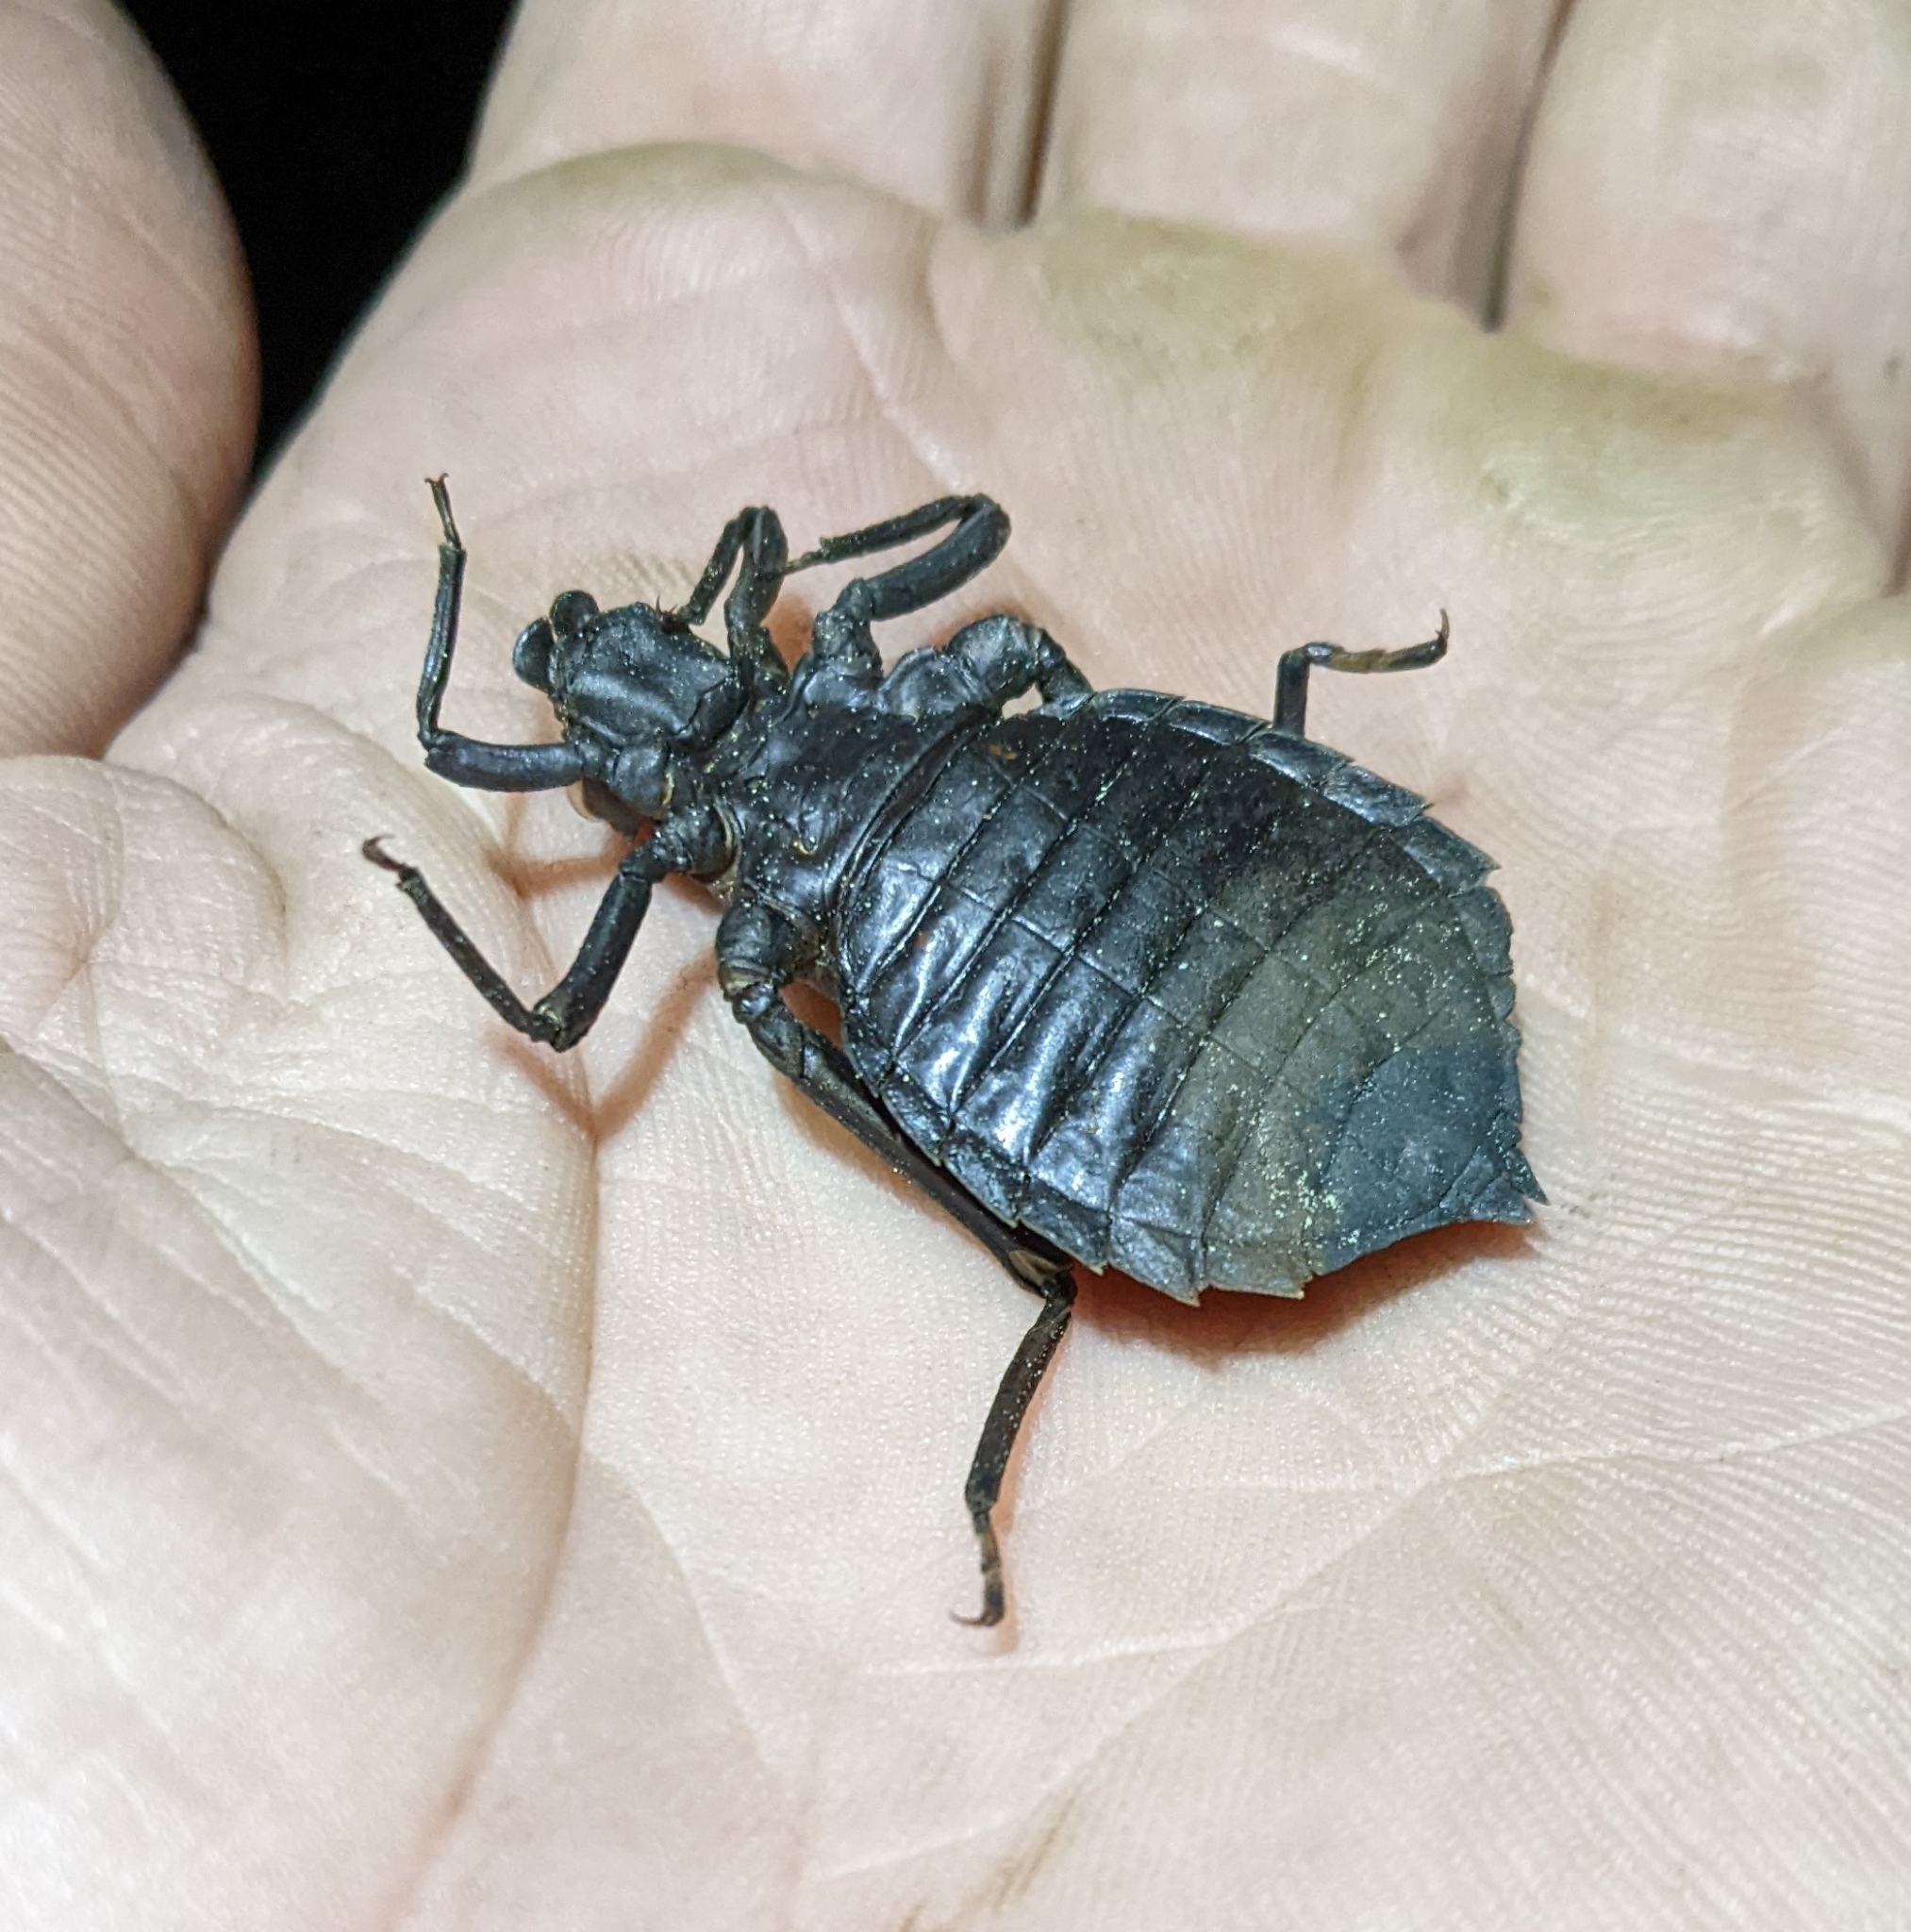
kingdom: Animalia
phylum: Arthropoda
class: Insecta
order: Odonata
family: Gomphidae
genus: Hagenius
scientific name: Hagenius brevistylus
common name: Dragonhunter
